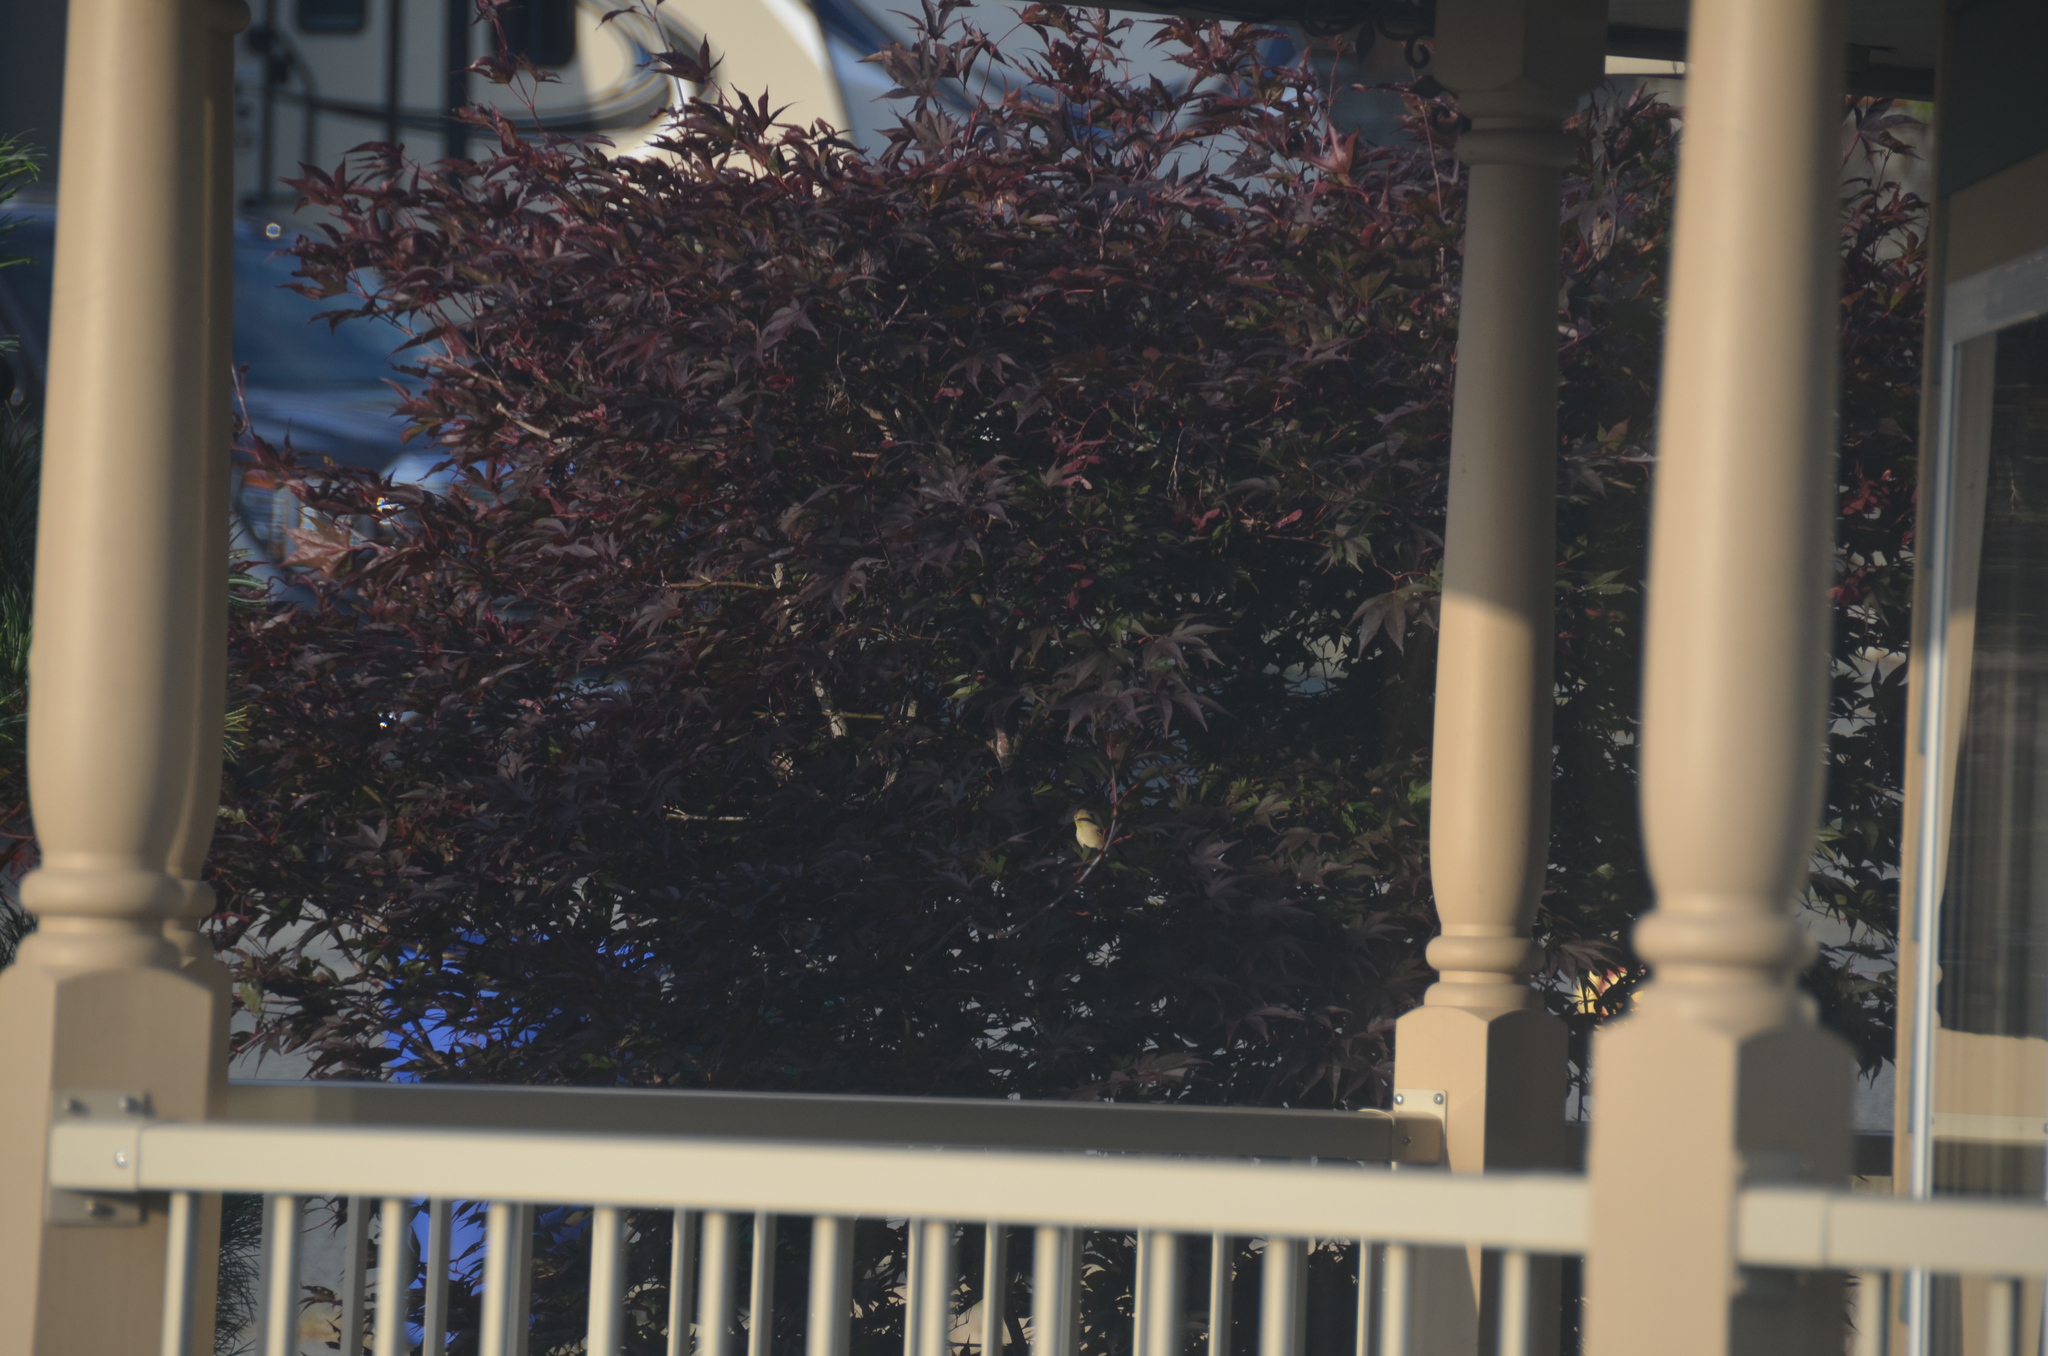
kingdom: Animalia
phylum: Chordata
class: Aves
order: Passeriformes
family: Fringillidae
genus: Spinus
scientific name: Spinus tristis
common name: American goldfinch
